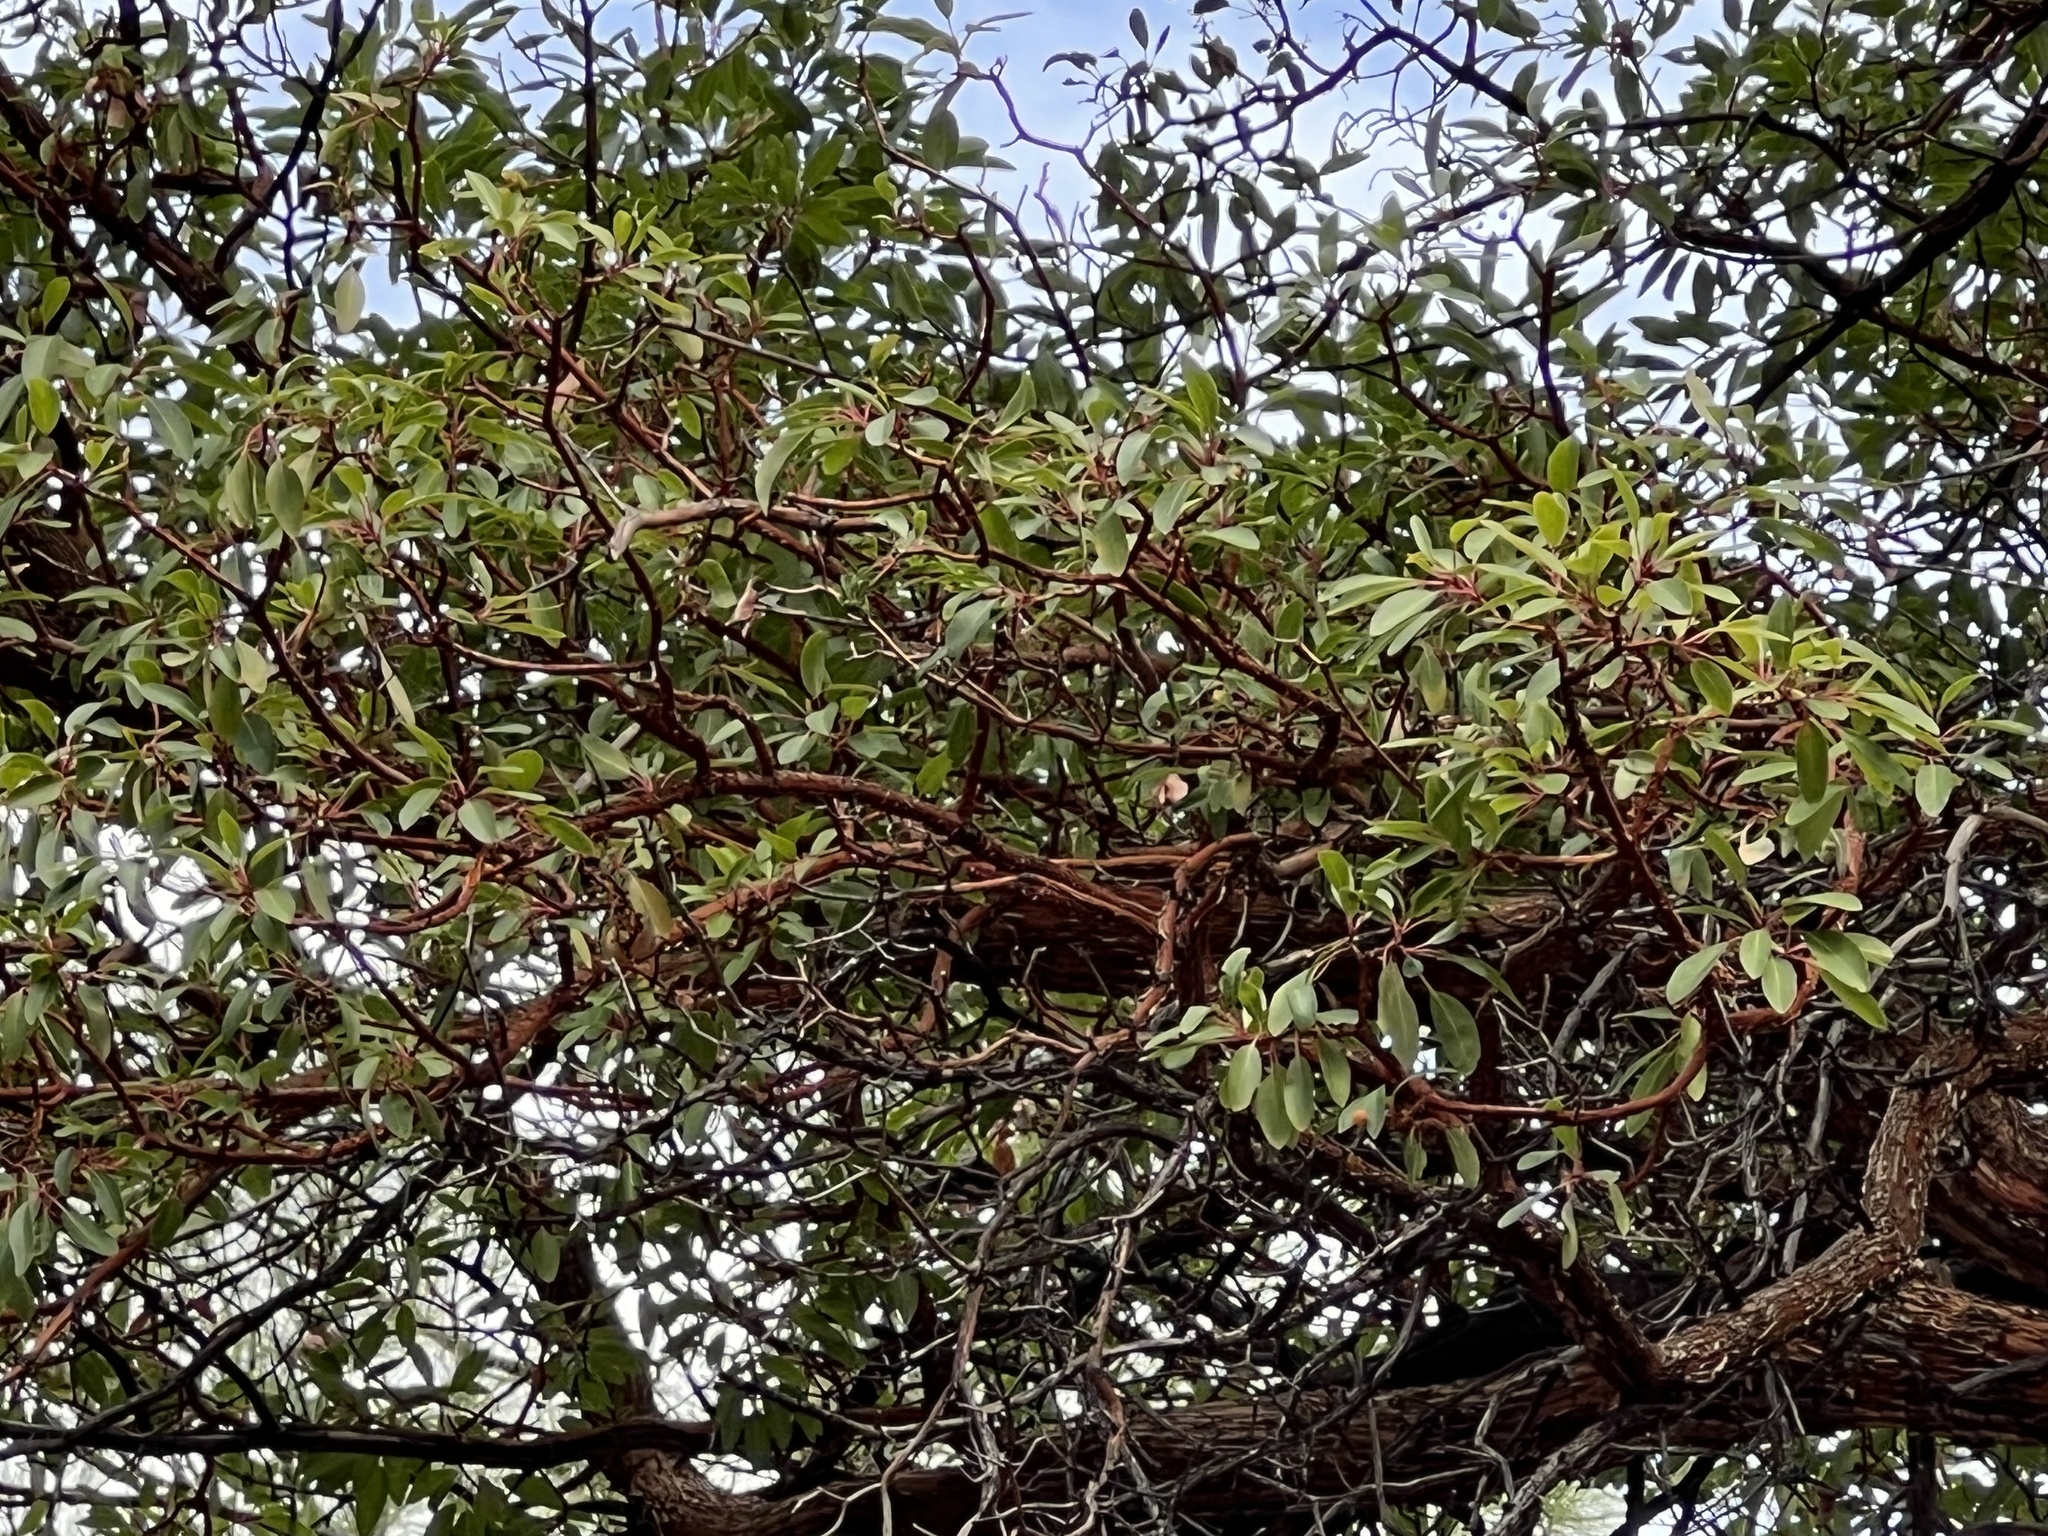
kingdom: Plantae
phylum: Tracheophyta
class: Magnoliopsida
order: Ericales
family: Ericaceae
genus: Arbutus
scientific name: Arbutus arizonica
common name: Arizona madrone
